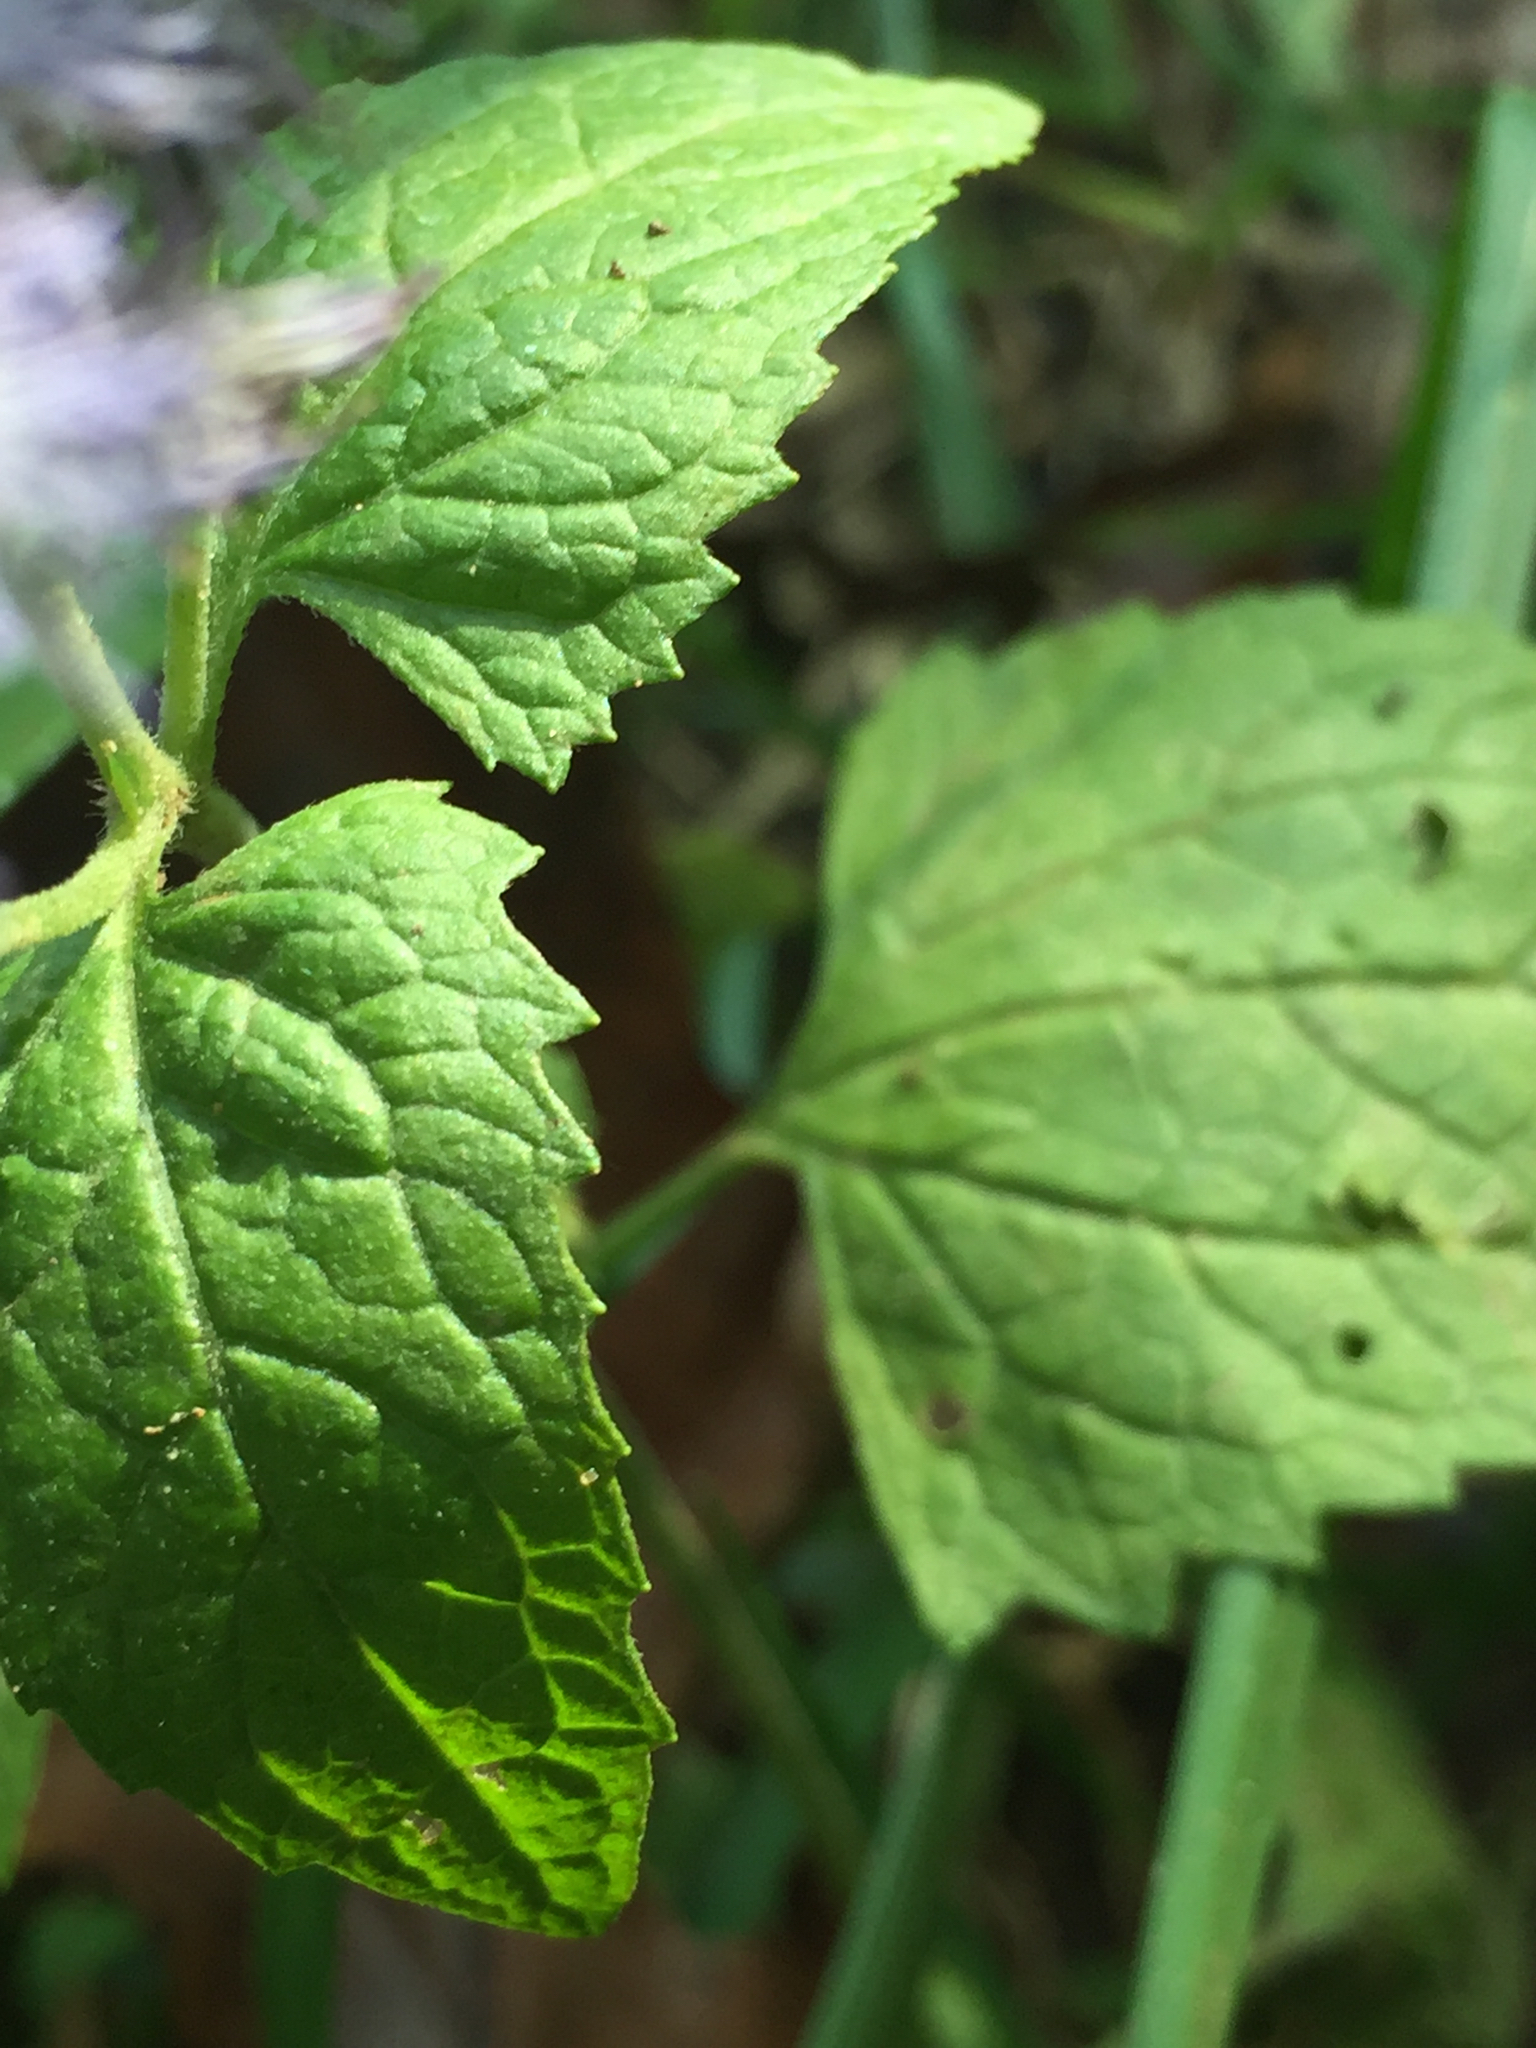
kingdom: Plantae
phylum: Tracheophyta
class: Magnoliopsida
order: Asterales
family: Asteraceae
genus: Conoclinium
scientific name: Conoclinium coelestinum
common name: Blue mistflower
